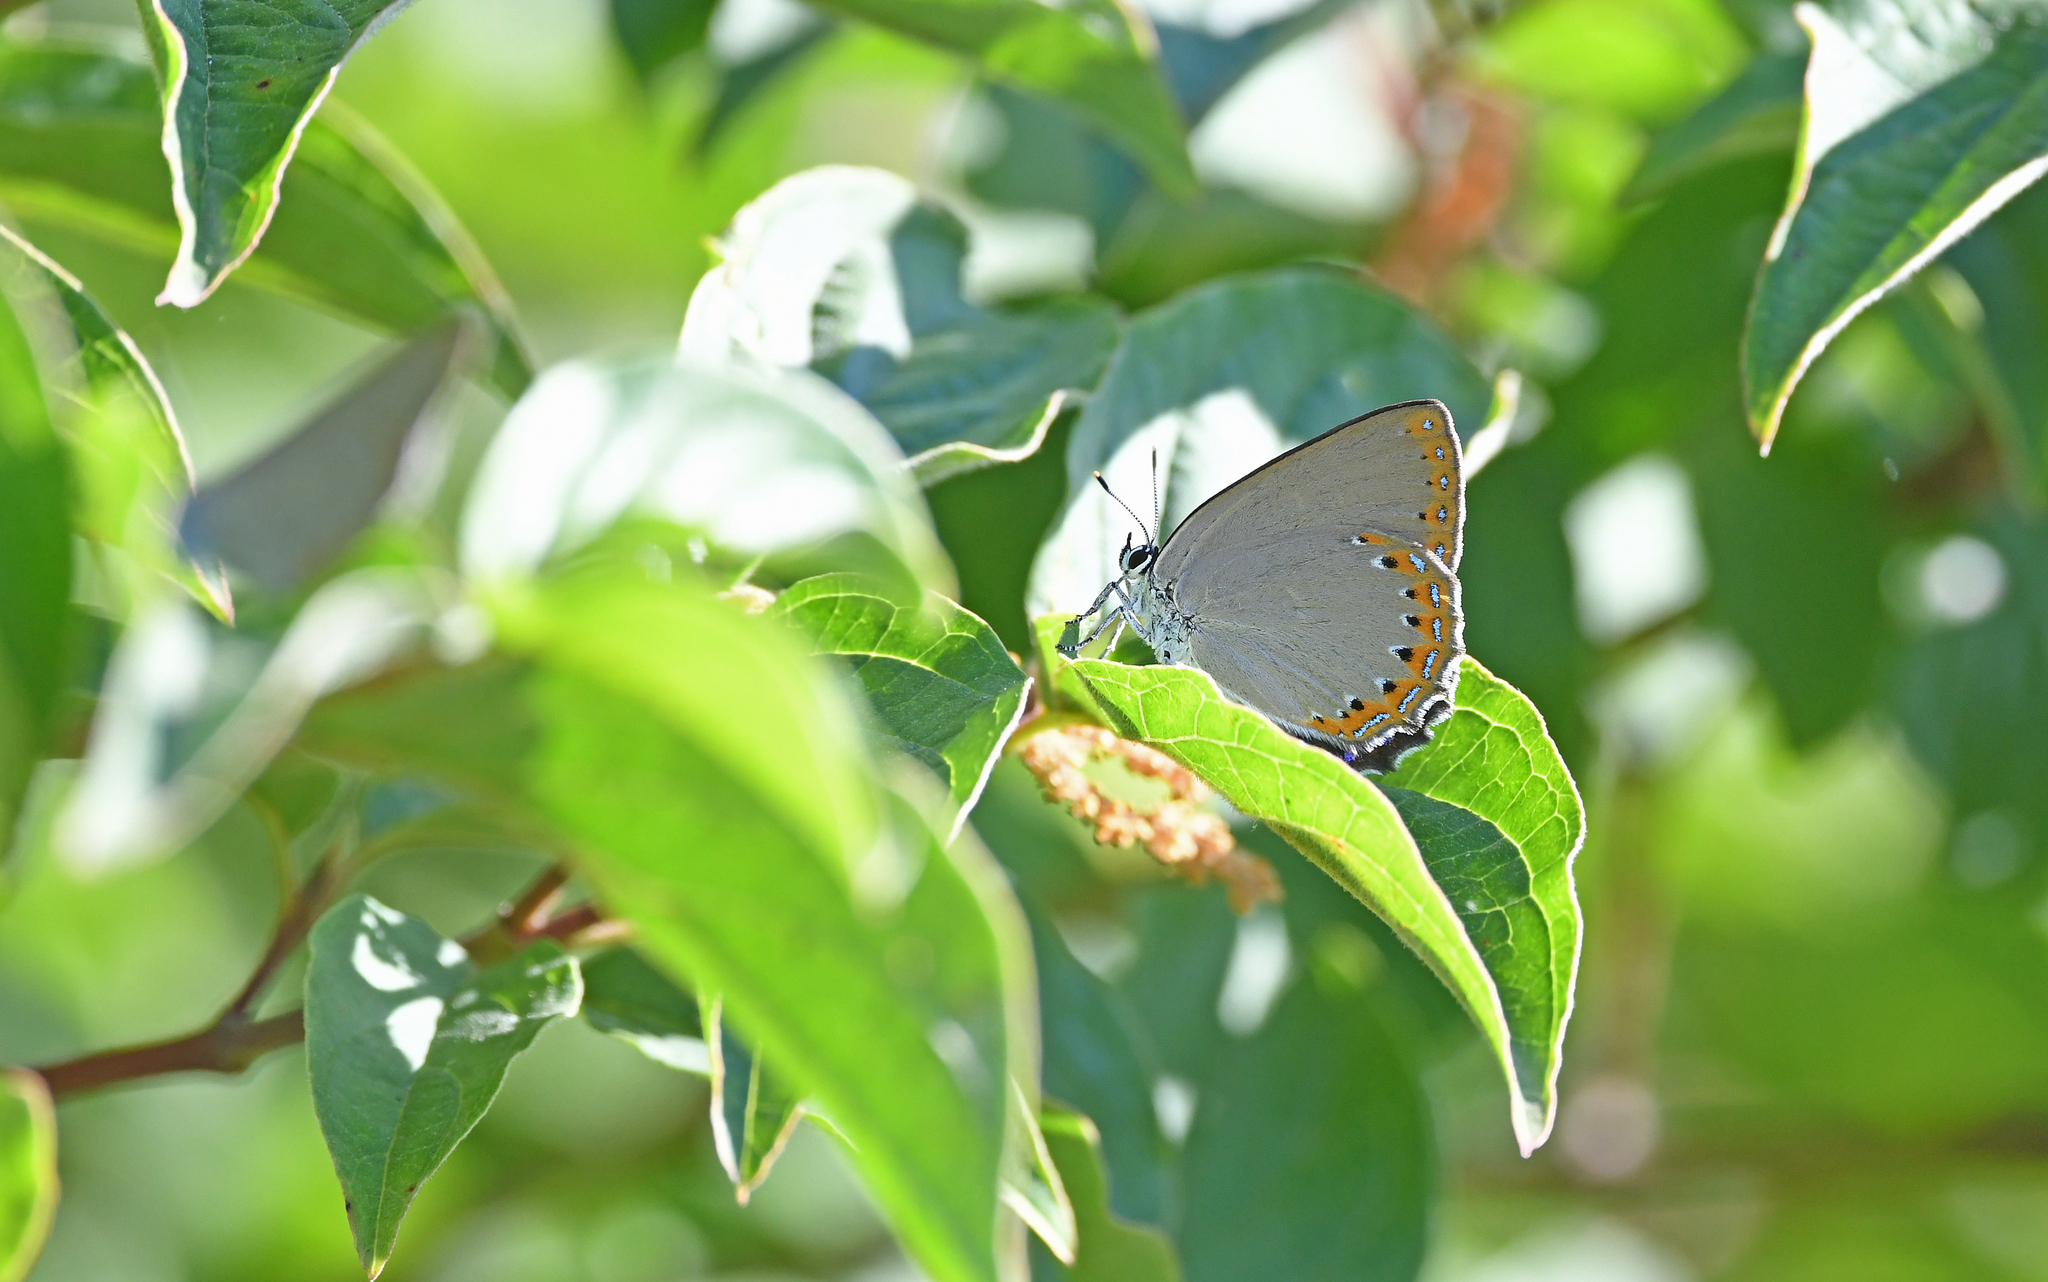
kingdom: Animalia
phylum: Arthropoda
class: Insecta
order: Lepidoptera
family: Lycaenidae
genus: Laeosopis
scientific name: Laeosopis roboris
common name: Spanish purple hairstreak
